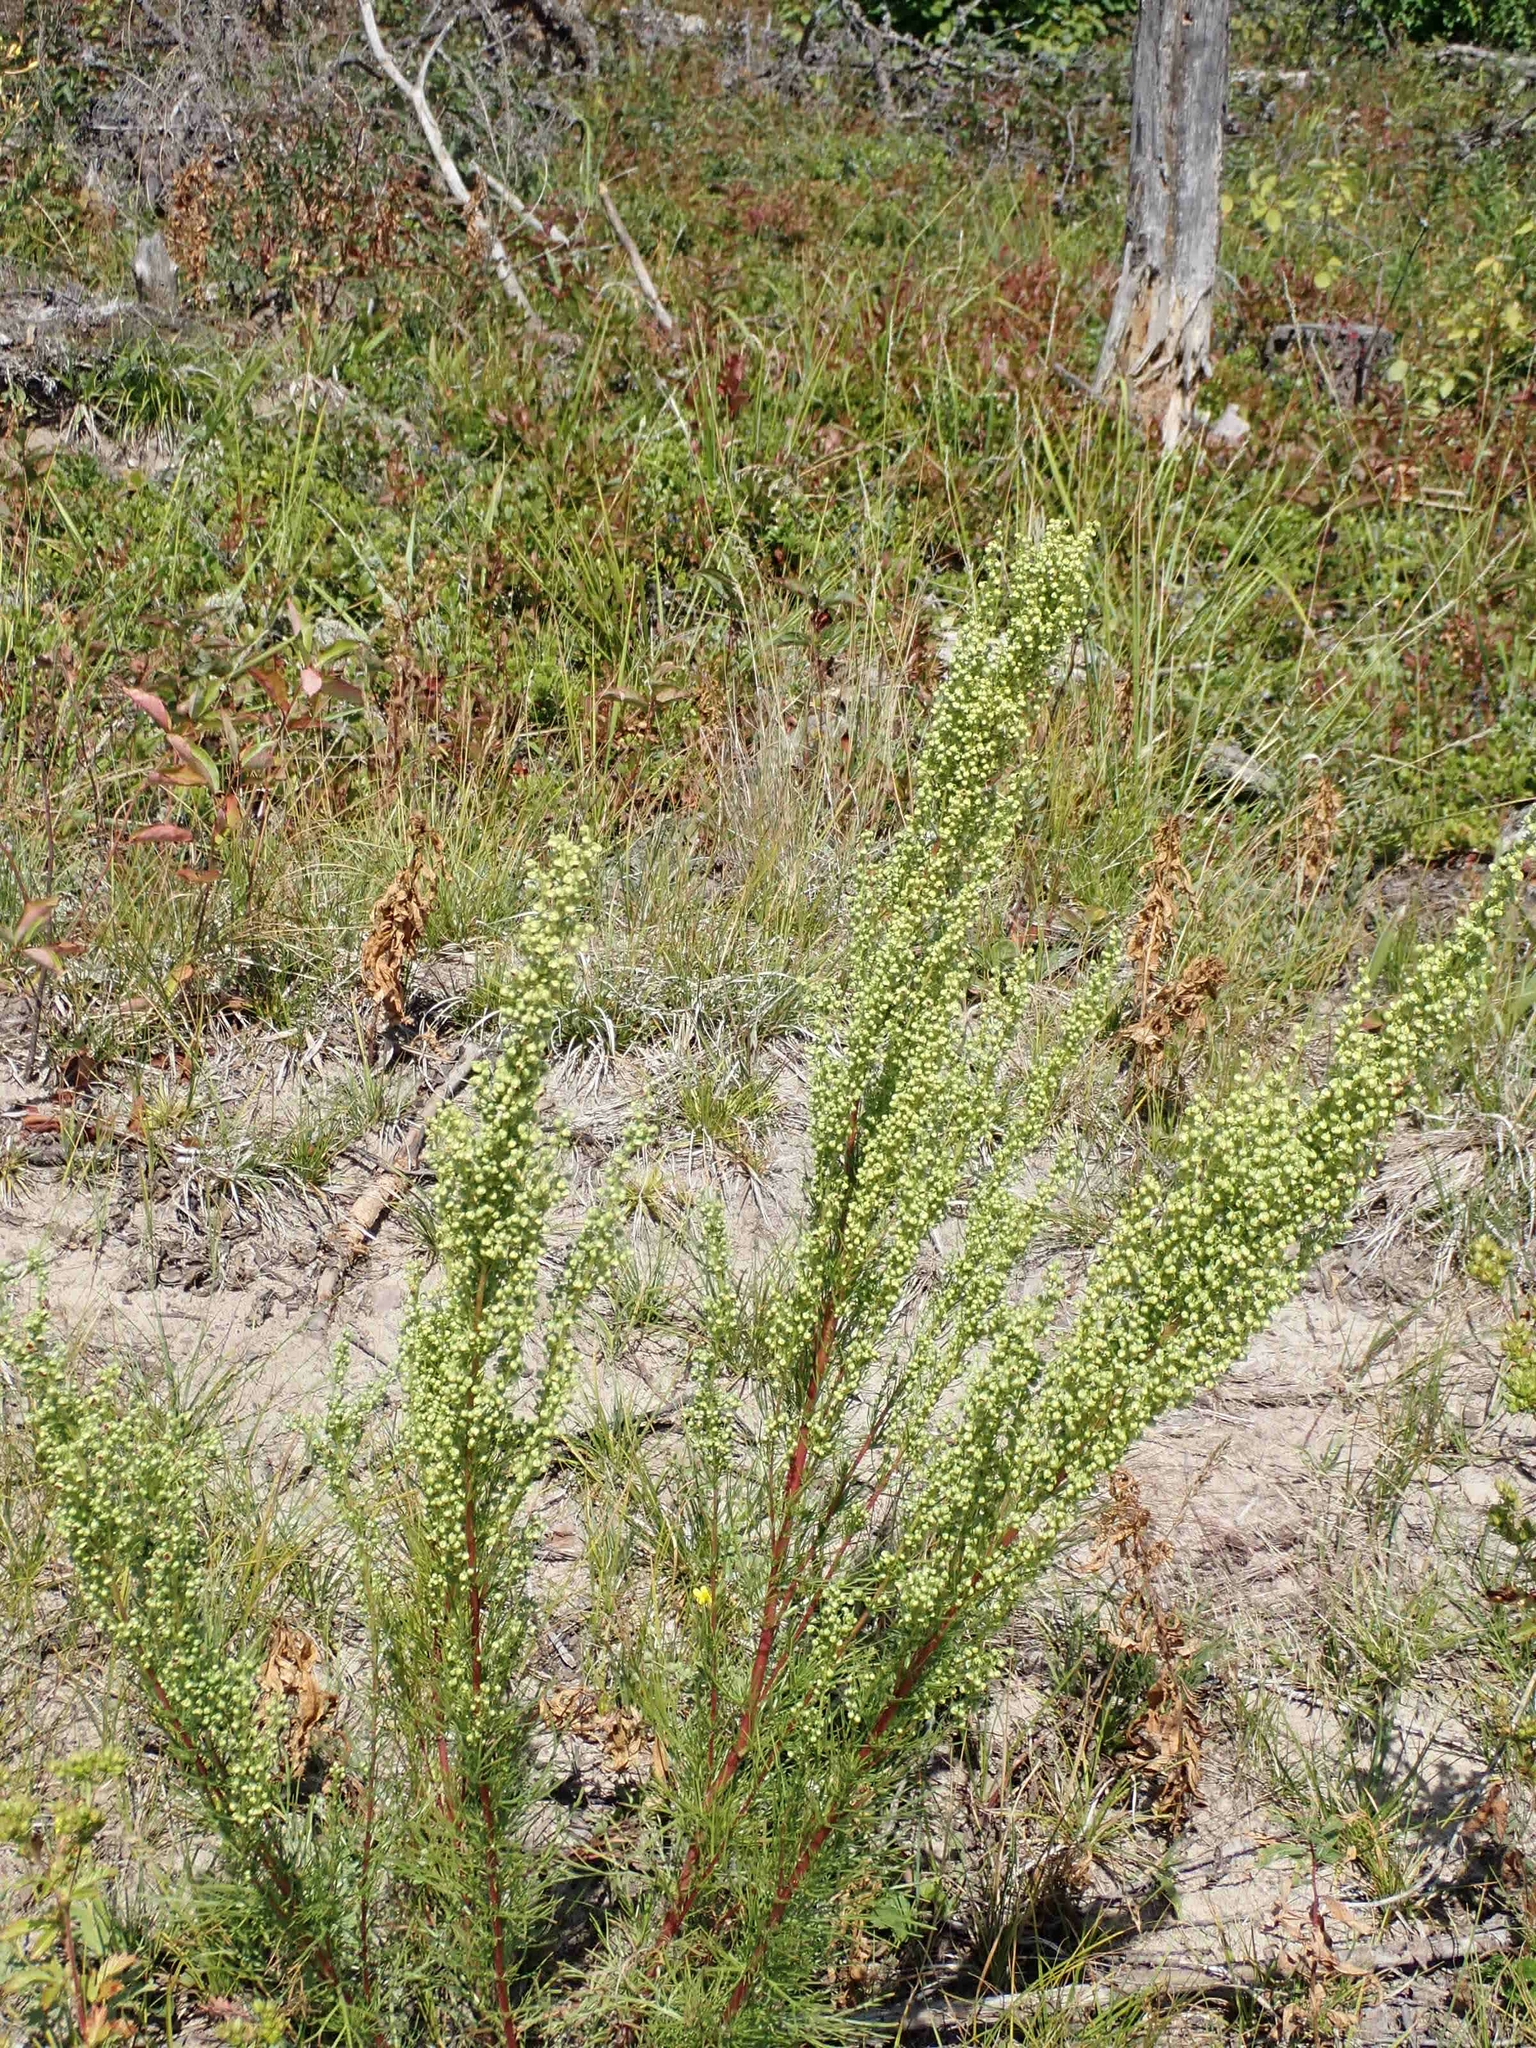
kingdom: Plantae
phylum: Tracheophyta
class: Magnoliopsida
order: Asterales
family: Asteraceae
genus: Artemisia
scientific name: Artemisia campestris
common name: Field wormwood
